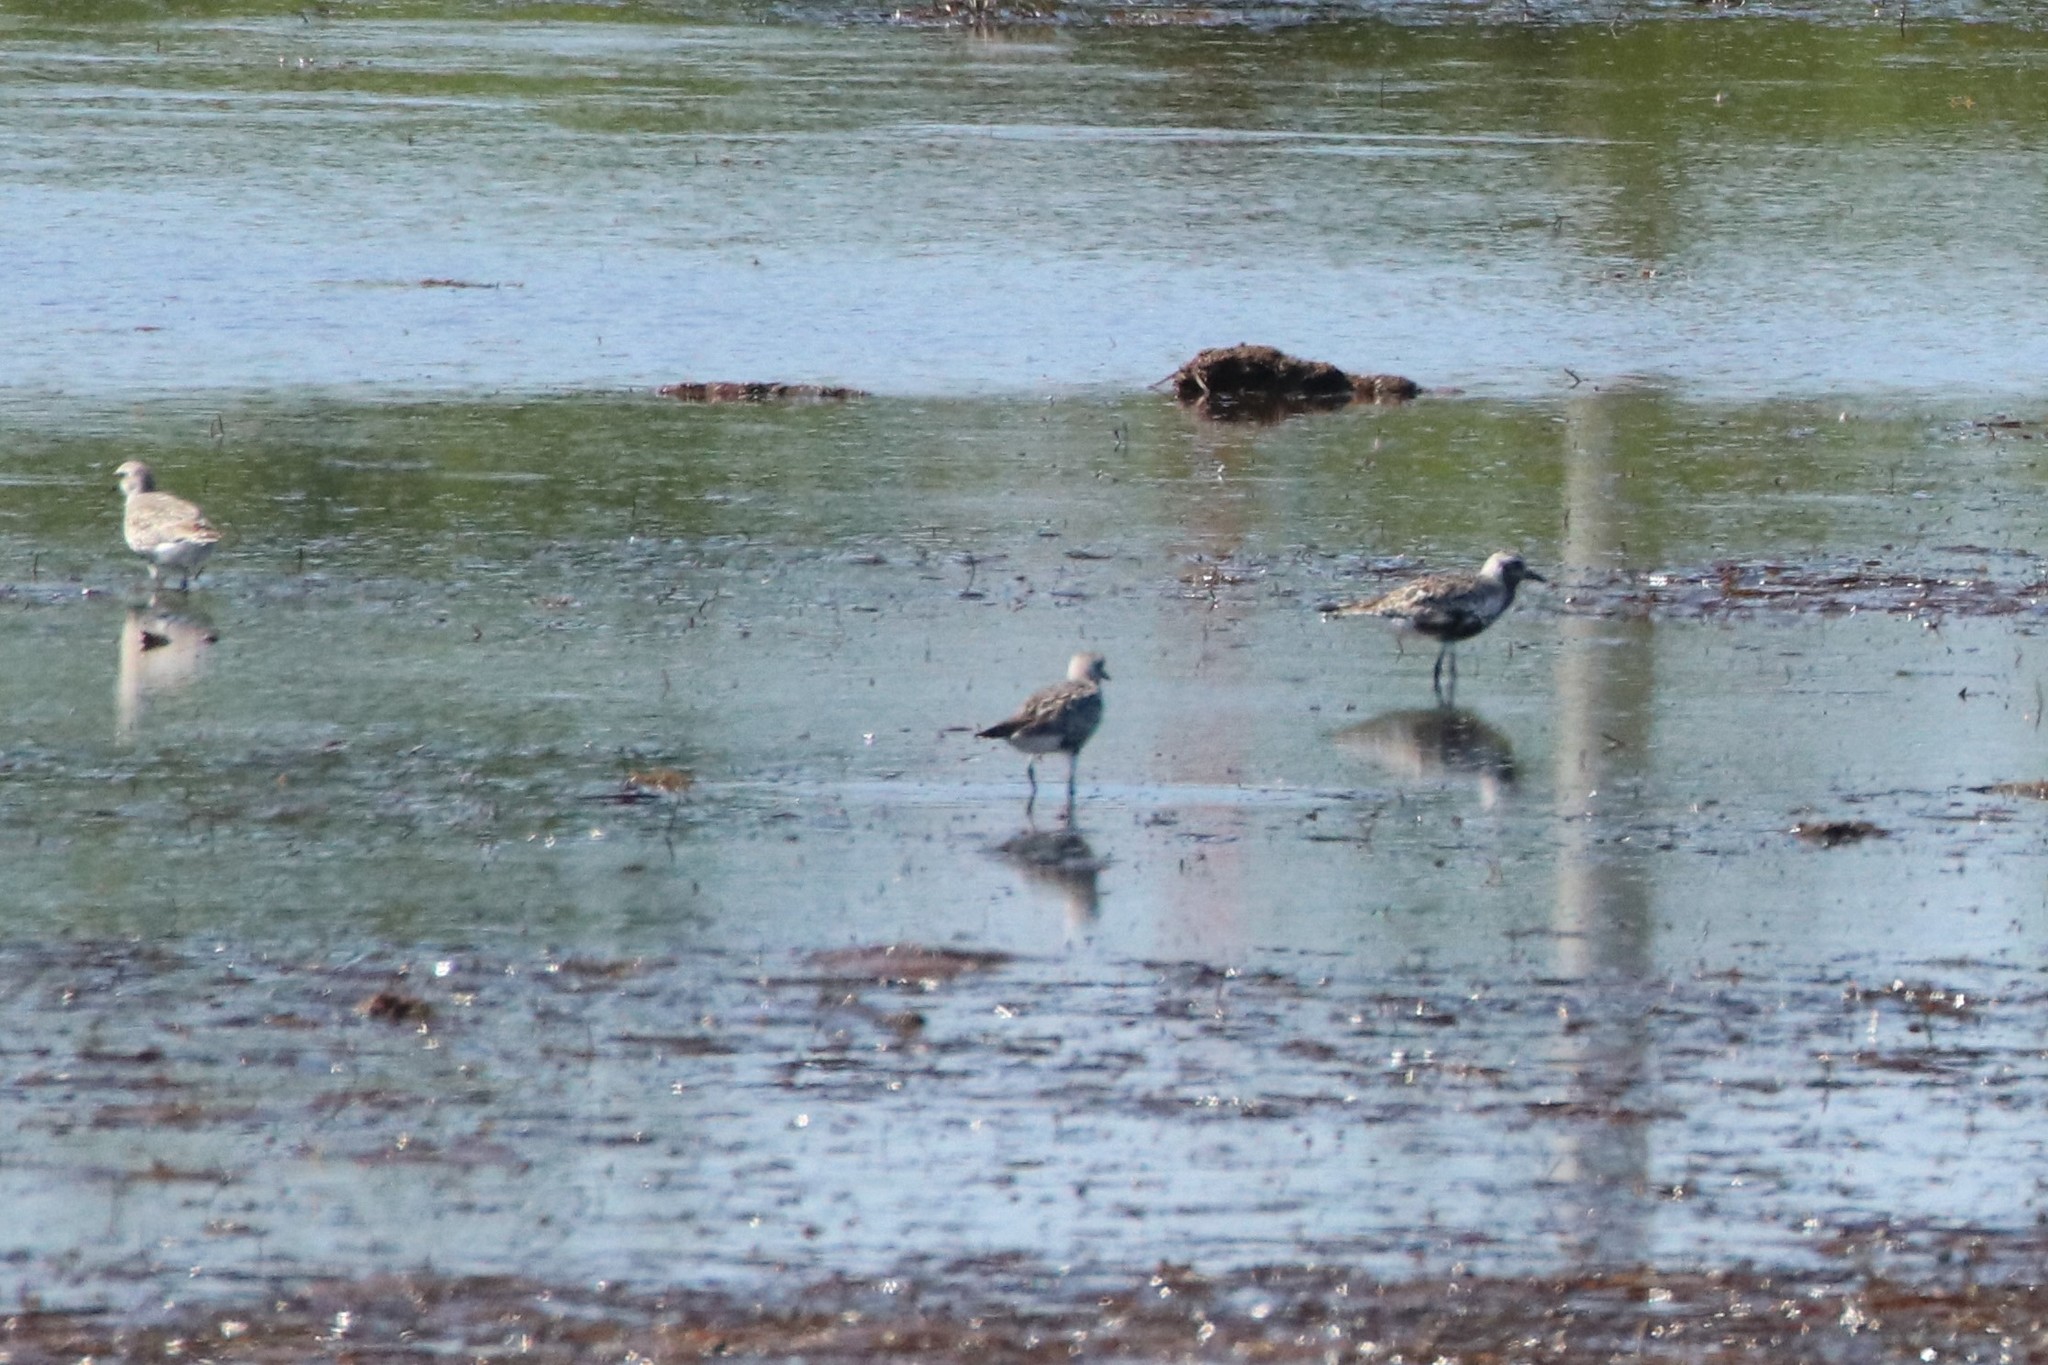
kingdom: Animalia
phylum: Chordata
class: Aves
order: Charadriiformes
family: Charadriidae
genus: Pluvialis
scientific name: Pluvialis squatarola
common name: Grey plover
